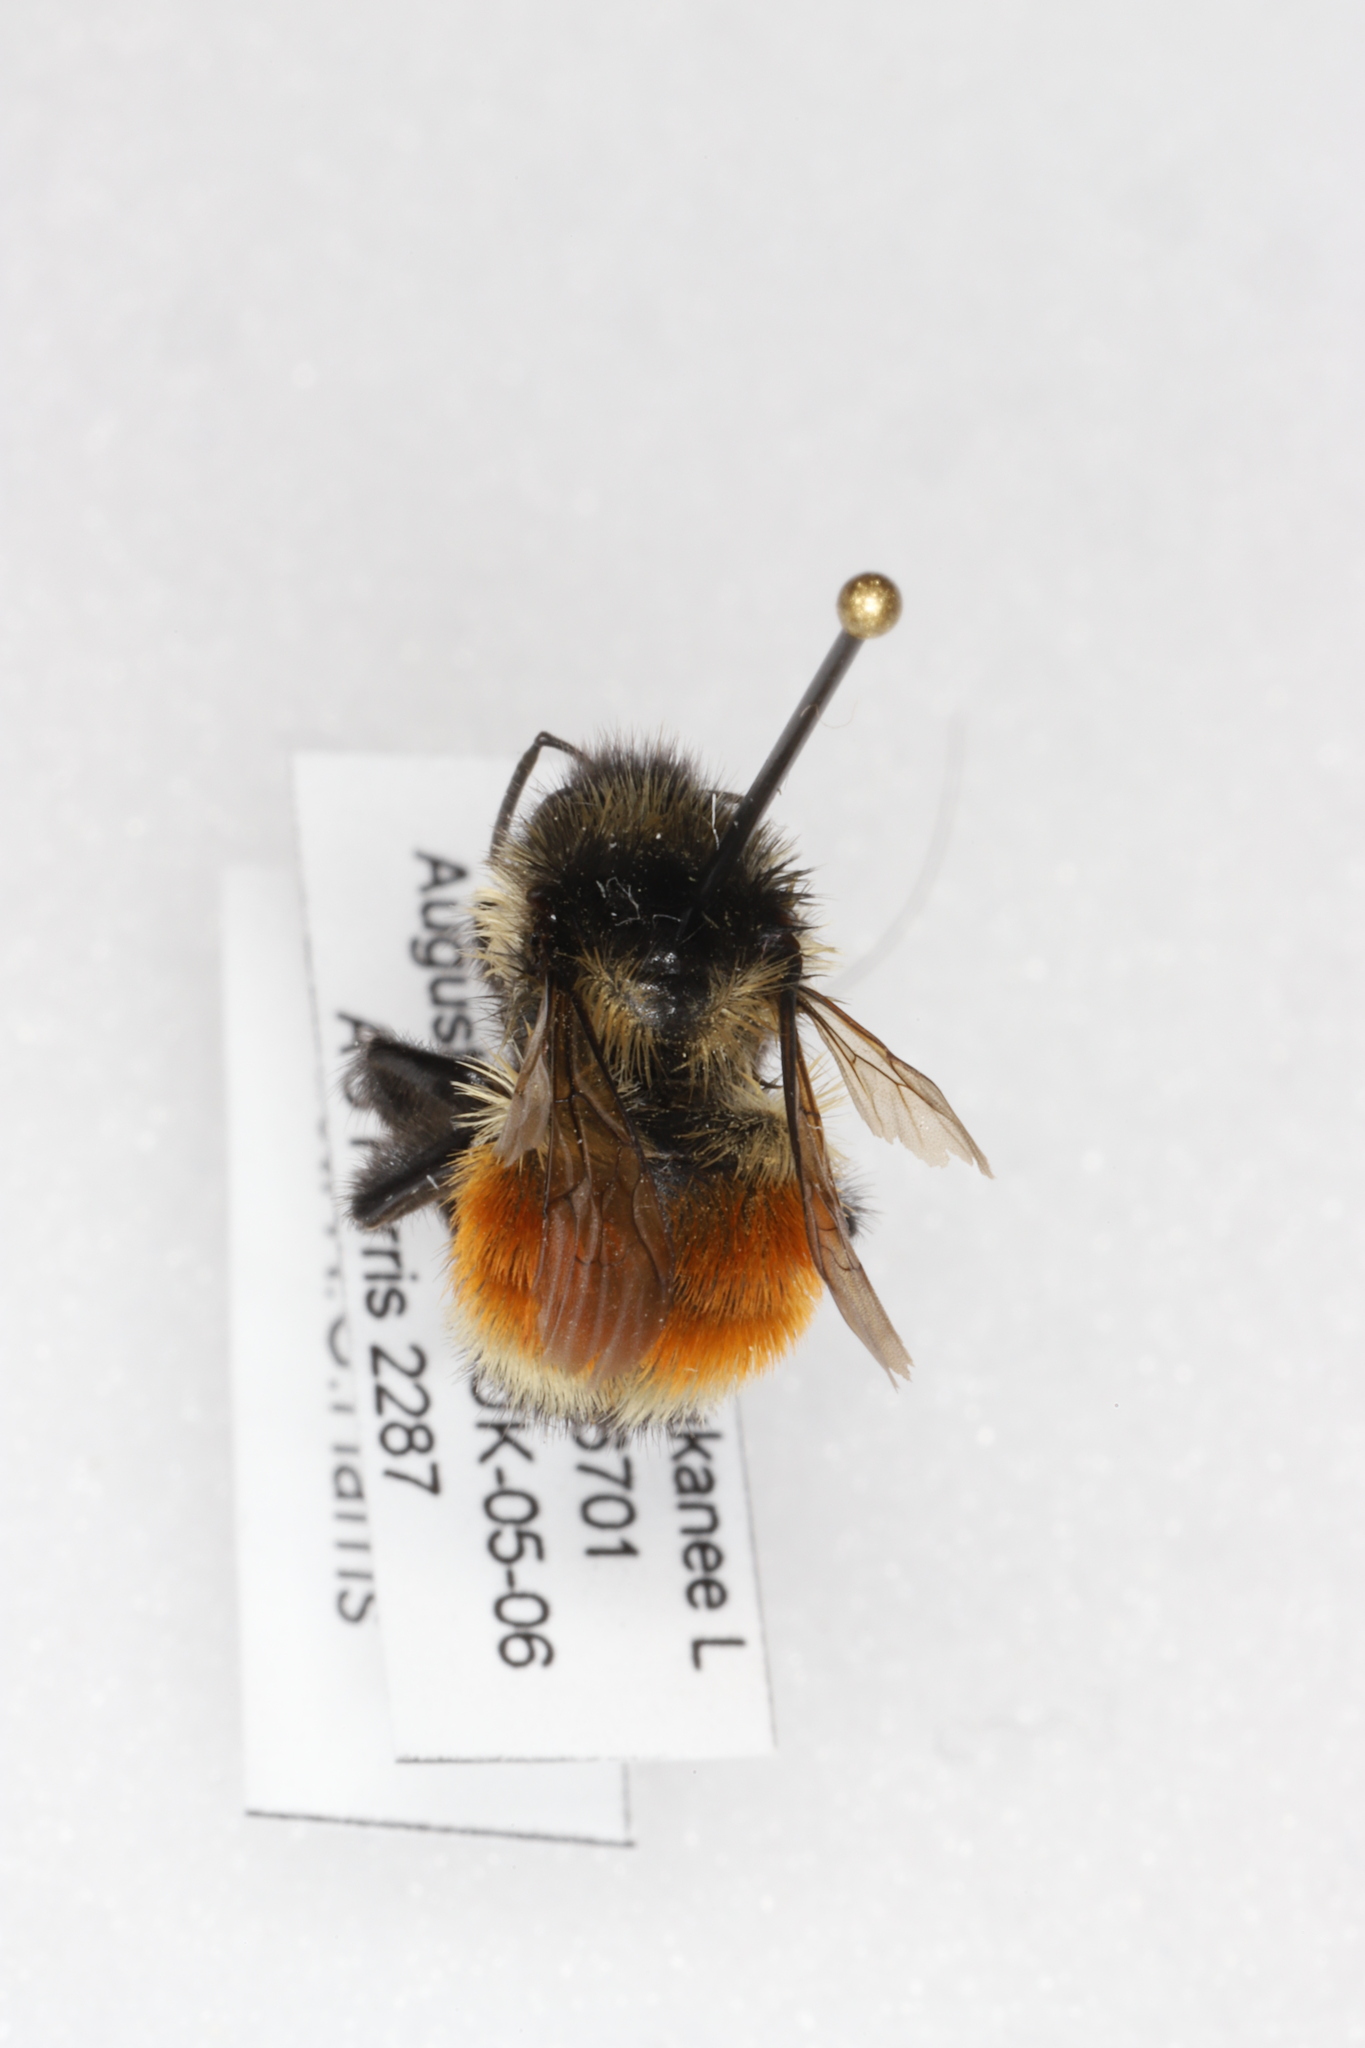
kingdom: Animalia
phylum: Arthropoda
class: Insecta
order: Hymenoptera
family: Apidae
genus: Bombus
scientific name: Bombus ternarius
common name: Tri-colored bumble bee
